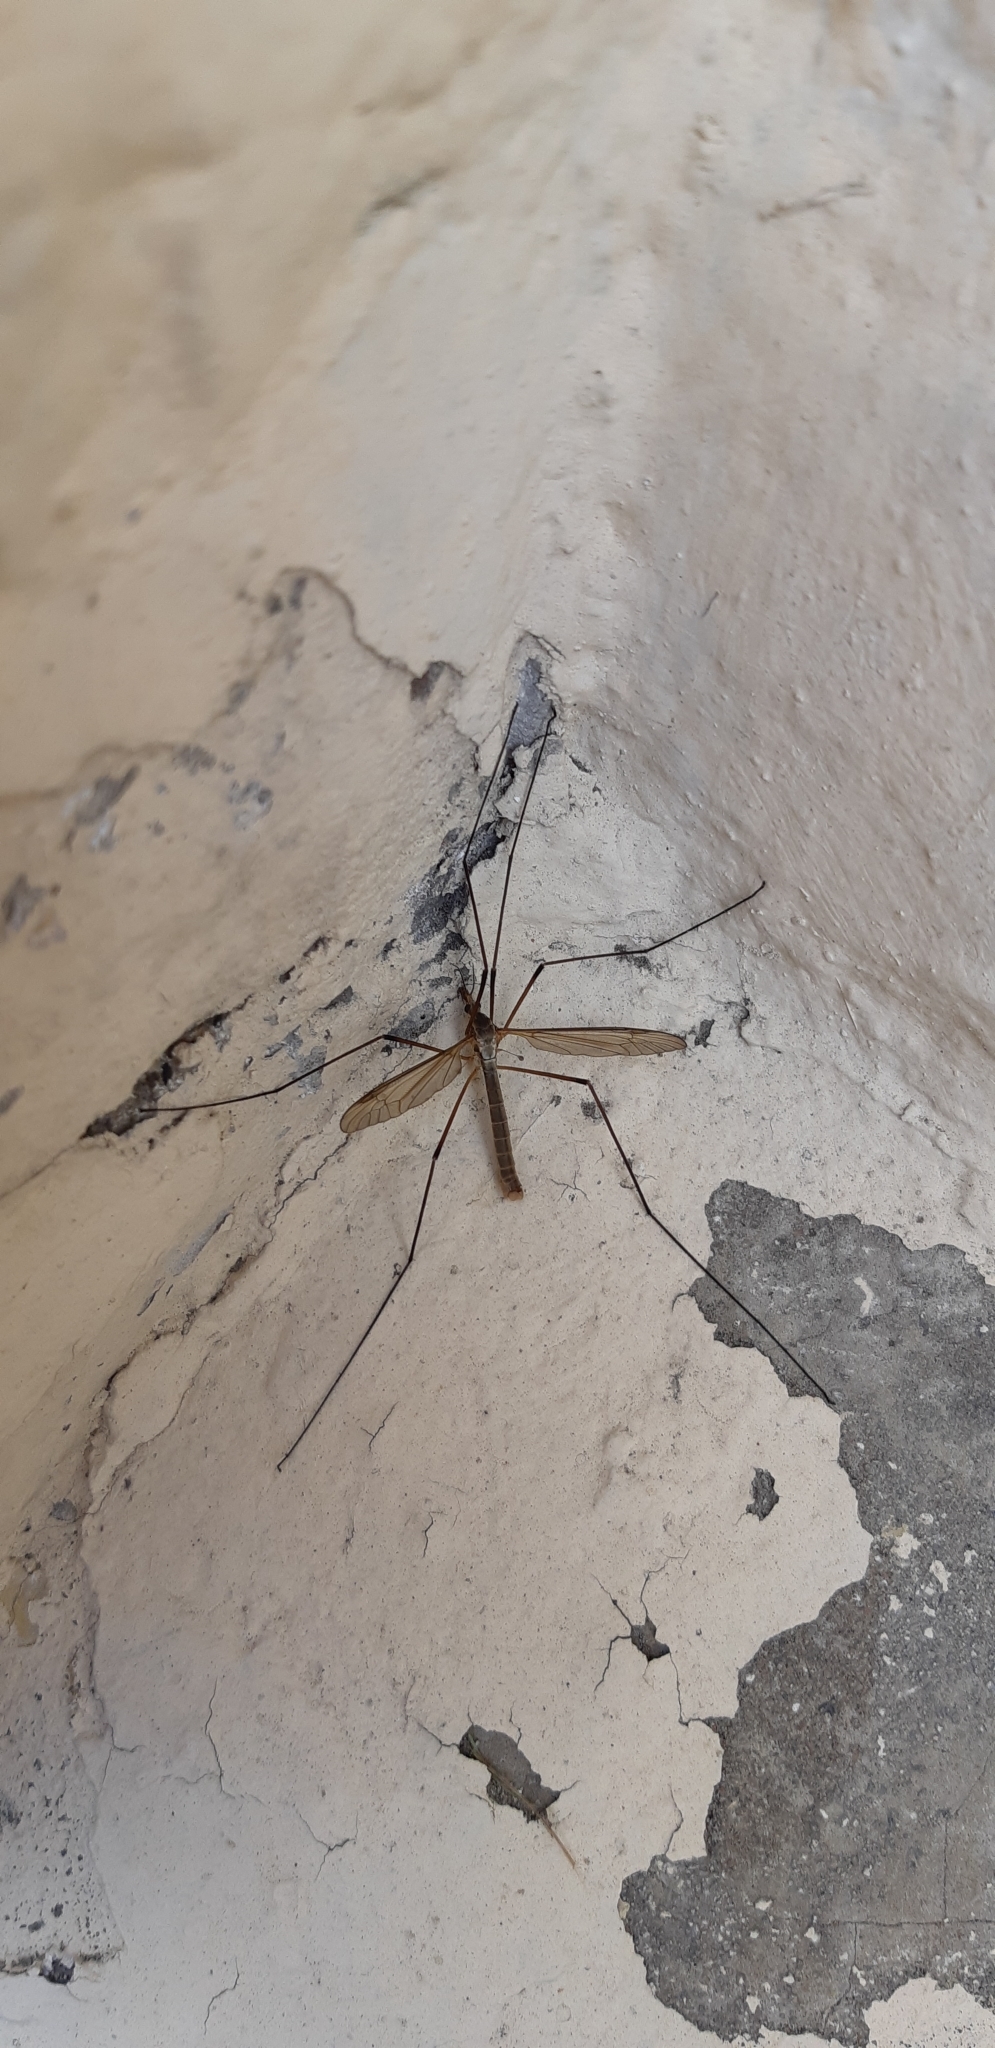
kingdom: Animalia
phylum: Arthropoda
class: Insecta
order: Diptera
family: Tipulidae
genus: Tipula
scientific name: Tipula
